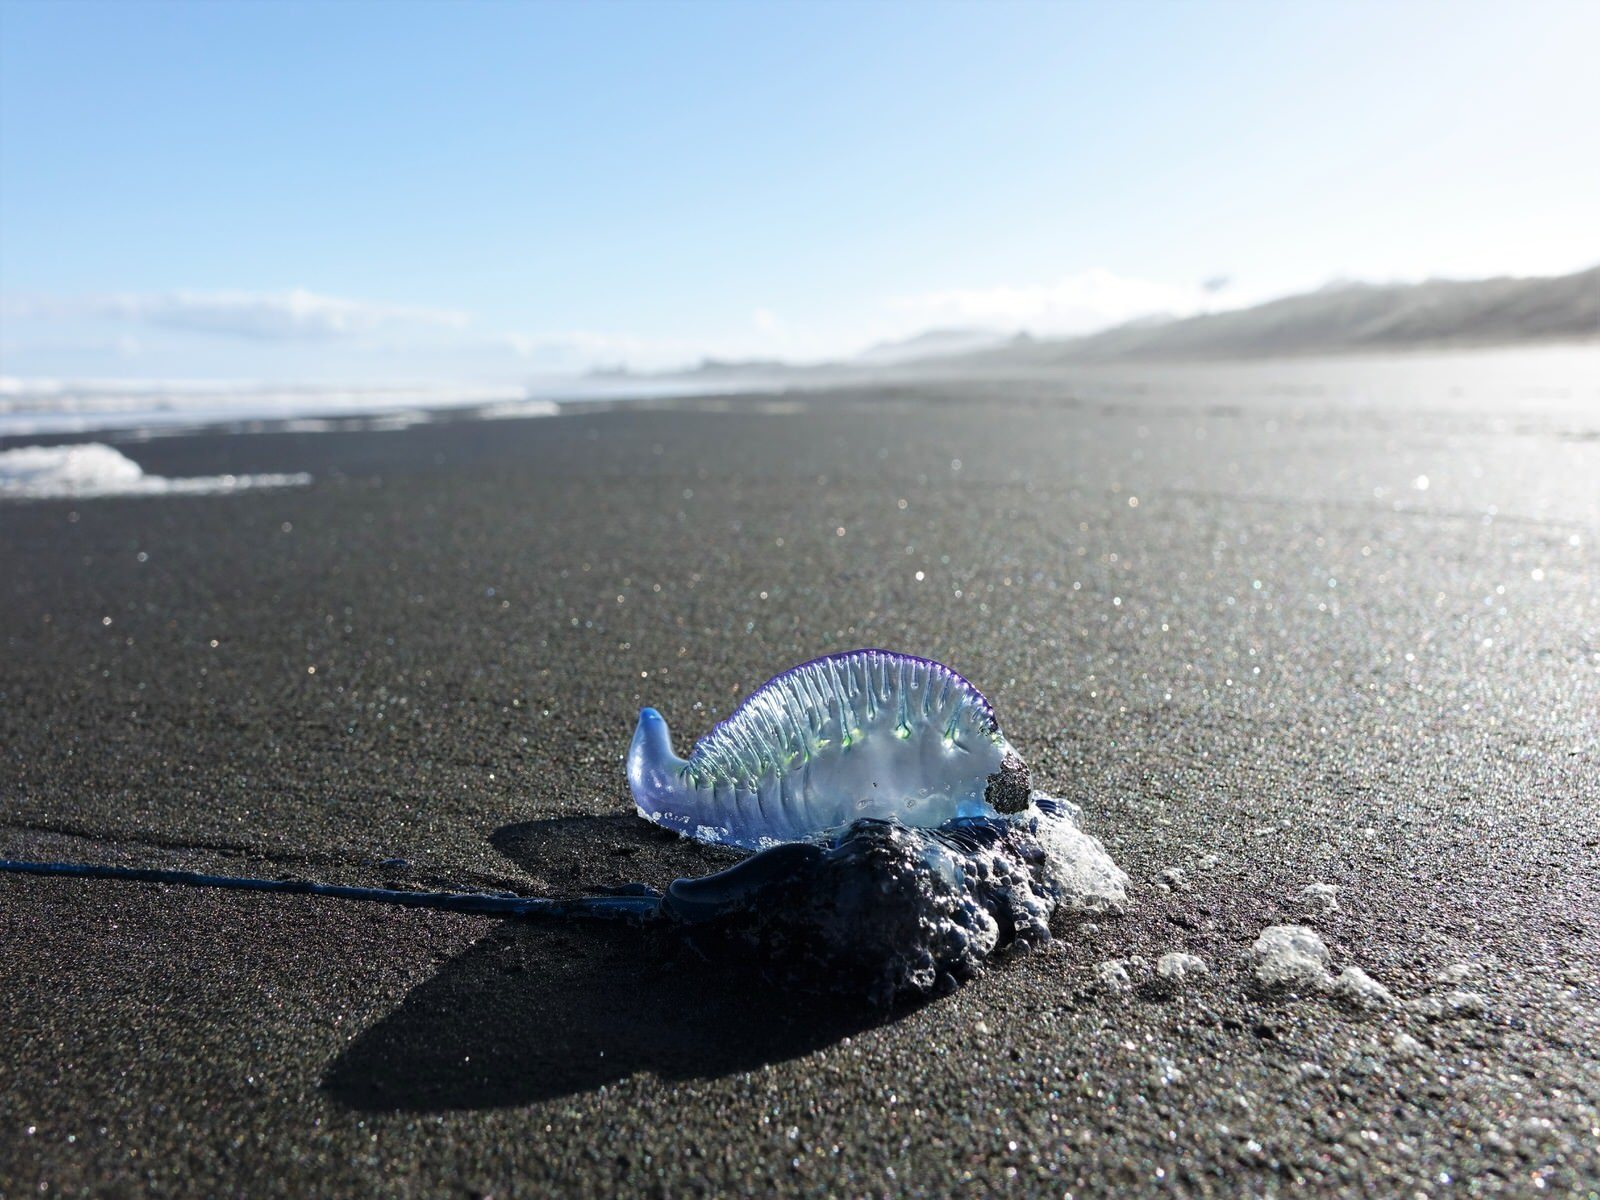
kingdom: Animalia
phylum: Cnidaria
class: Hydrozoa
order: Siphonophorae
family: Physaliidae
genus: Physalia
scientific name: Physalia physalis
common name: Portuguese man-of-war
